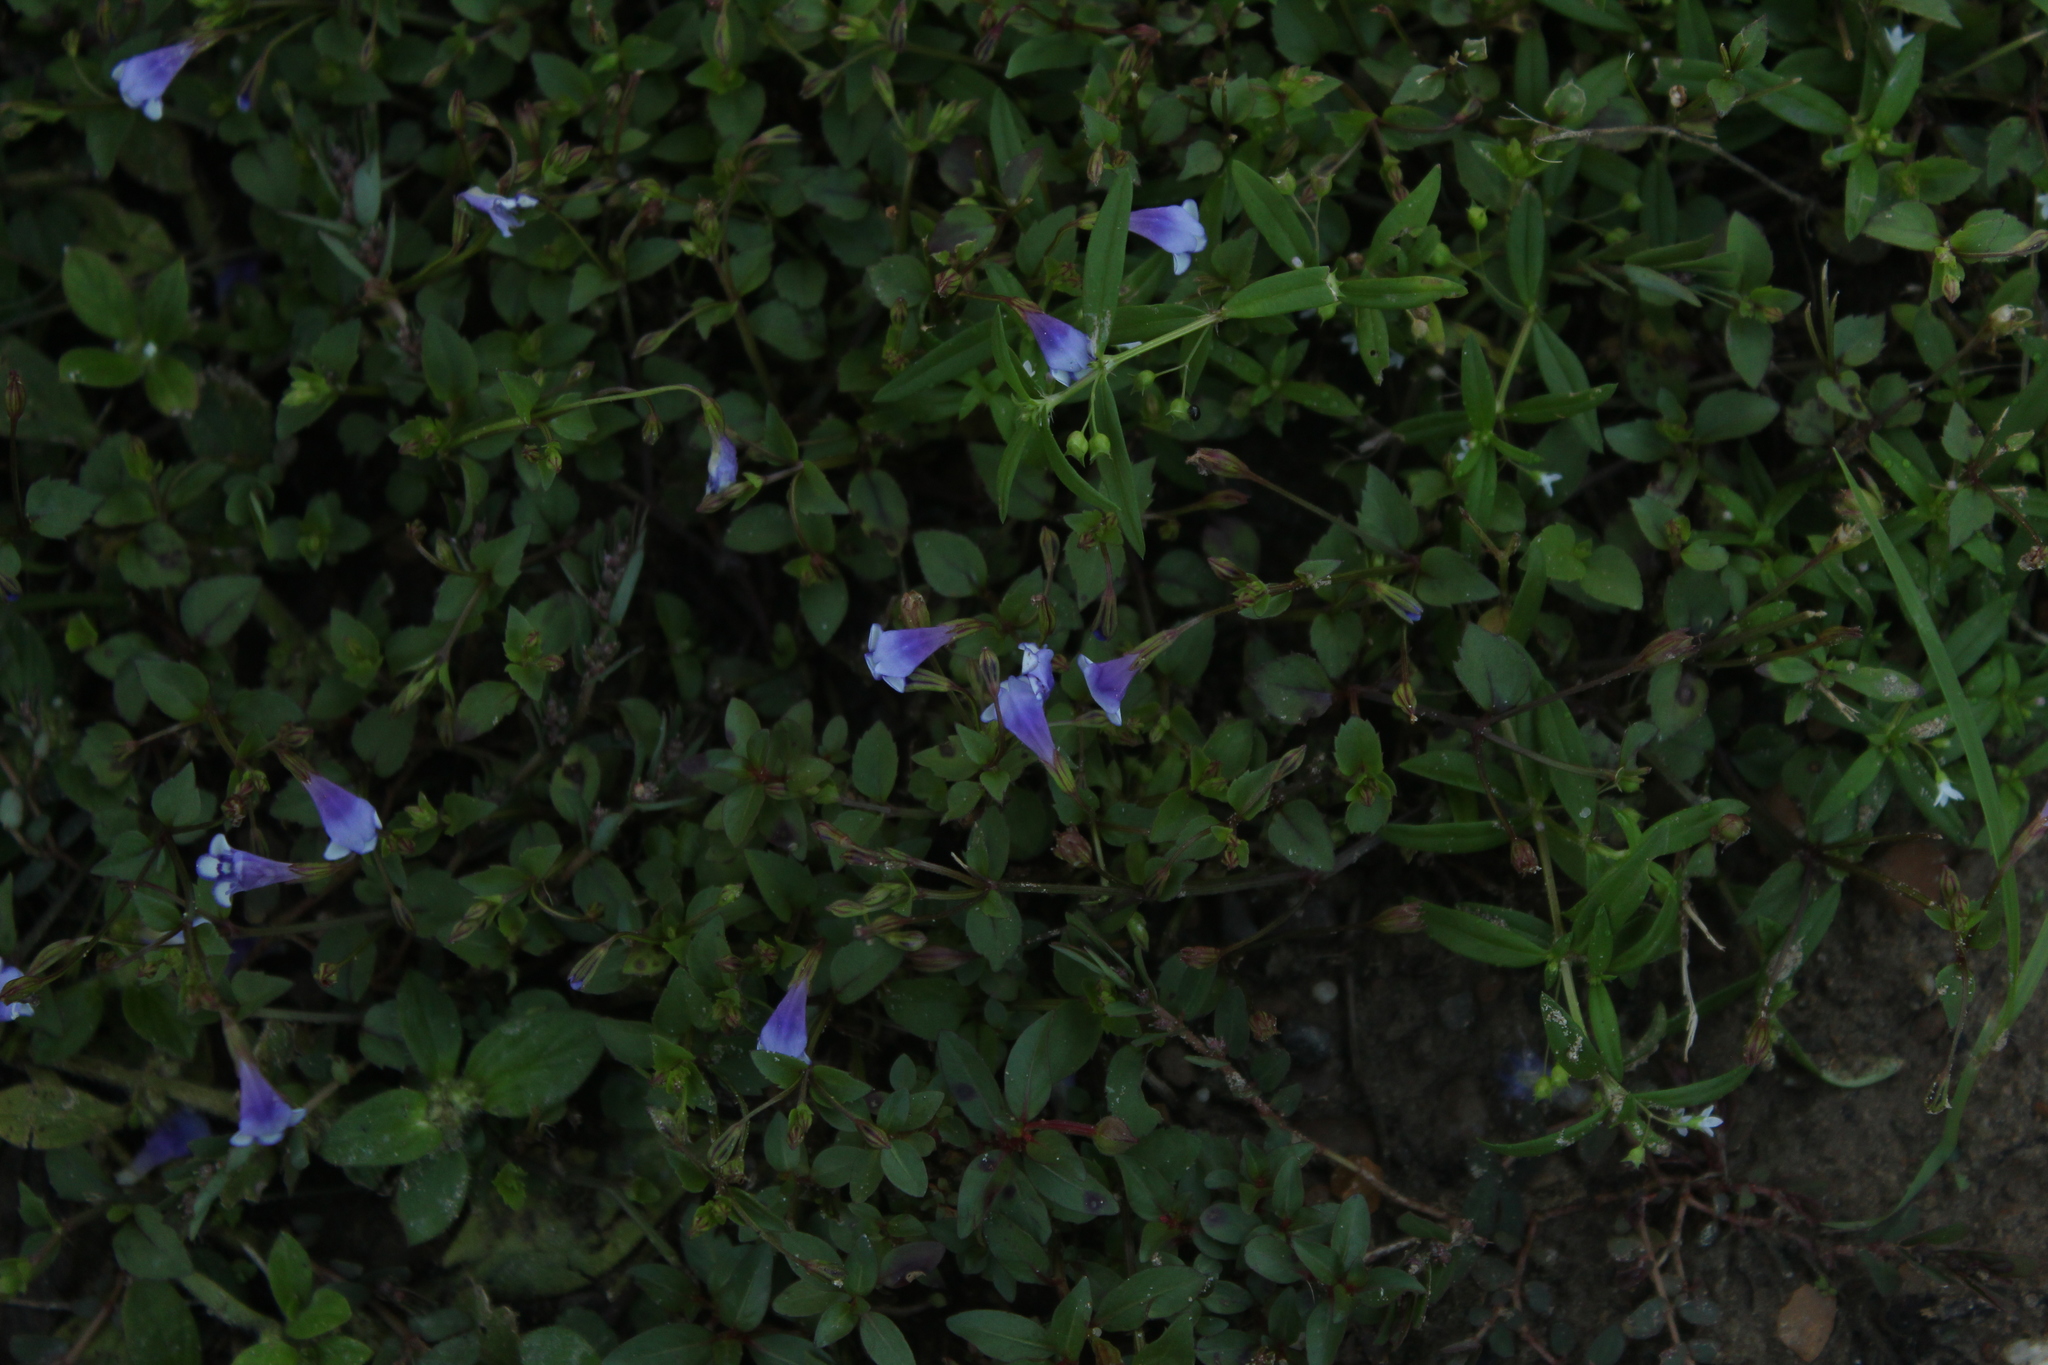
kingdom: Plantae
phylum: Tracheophyta
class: Magnoliopsida
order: Lamiales
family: Linderniaceae
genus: Torenia
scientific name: Torenia crustacea
